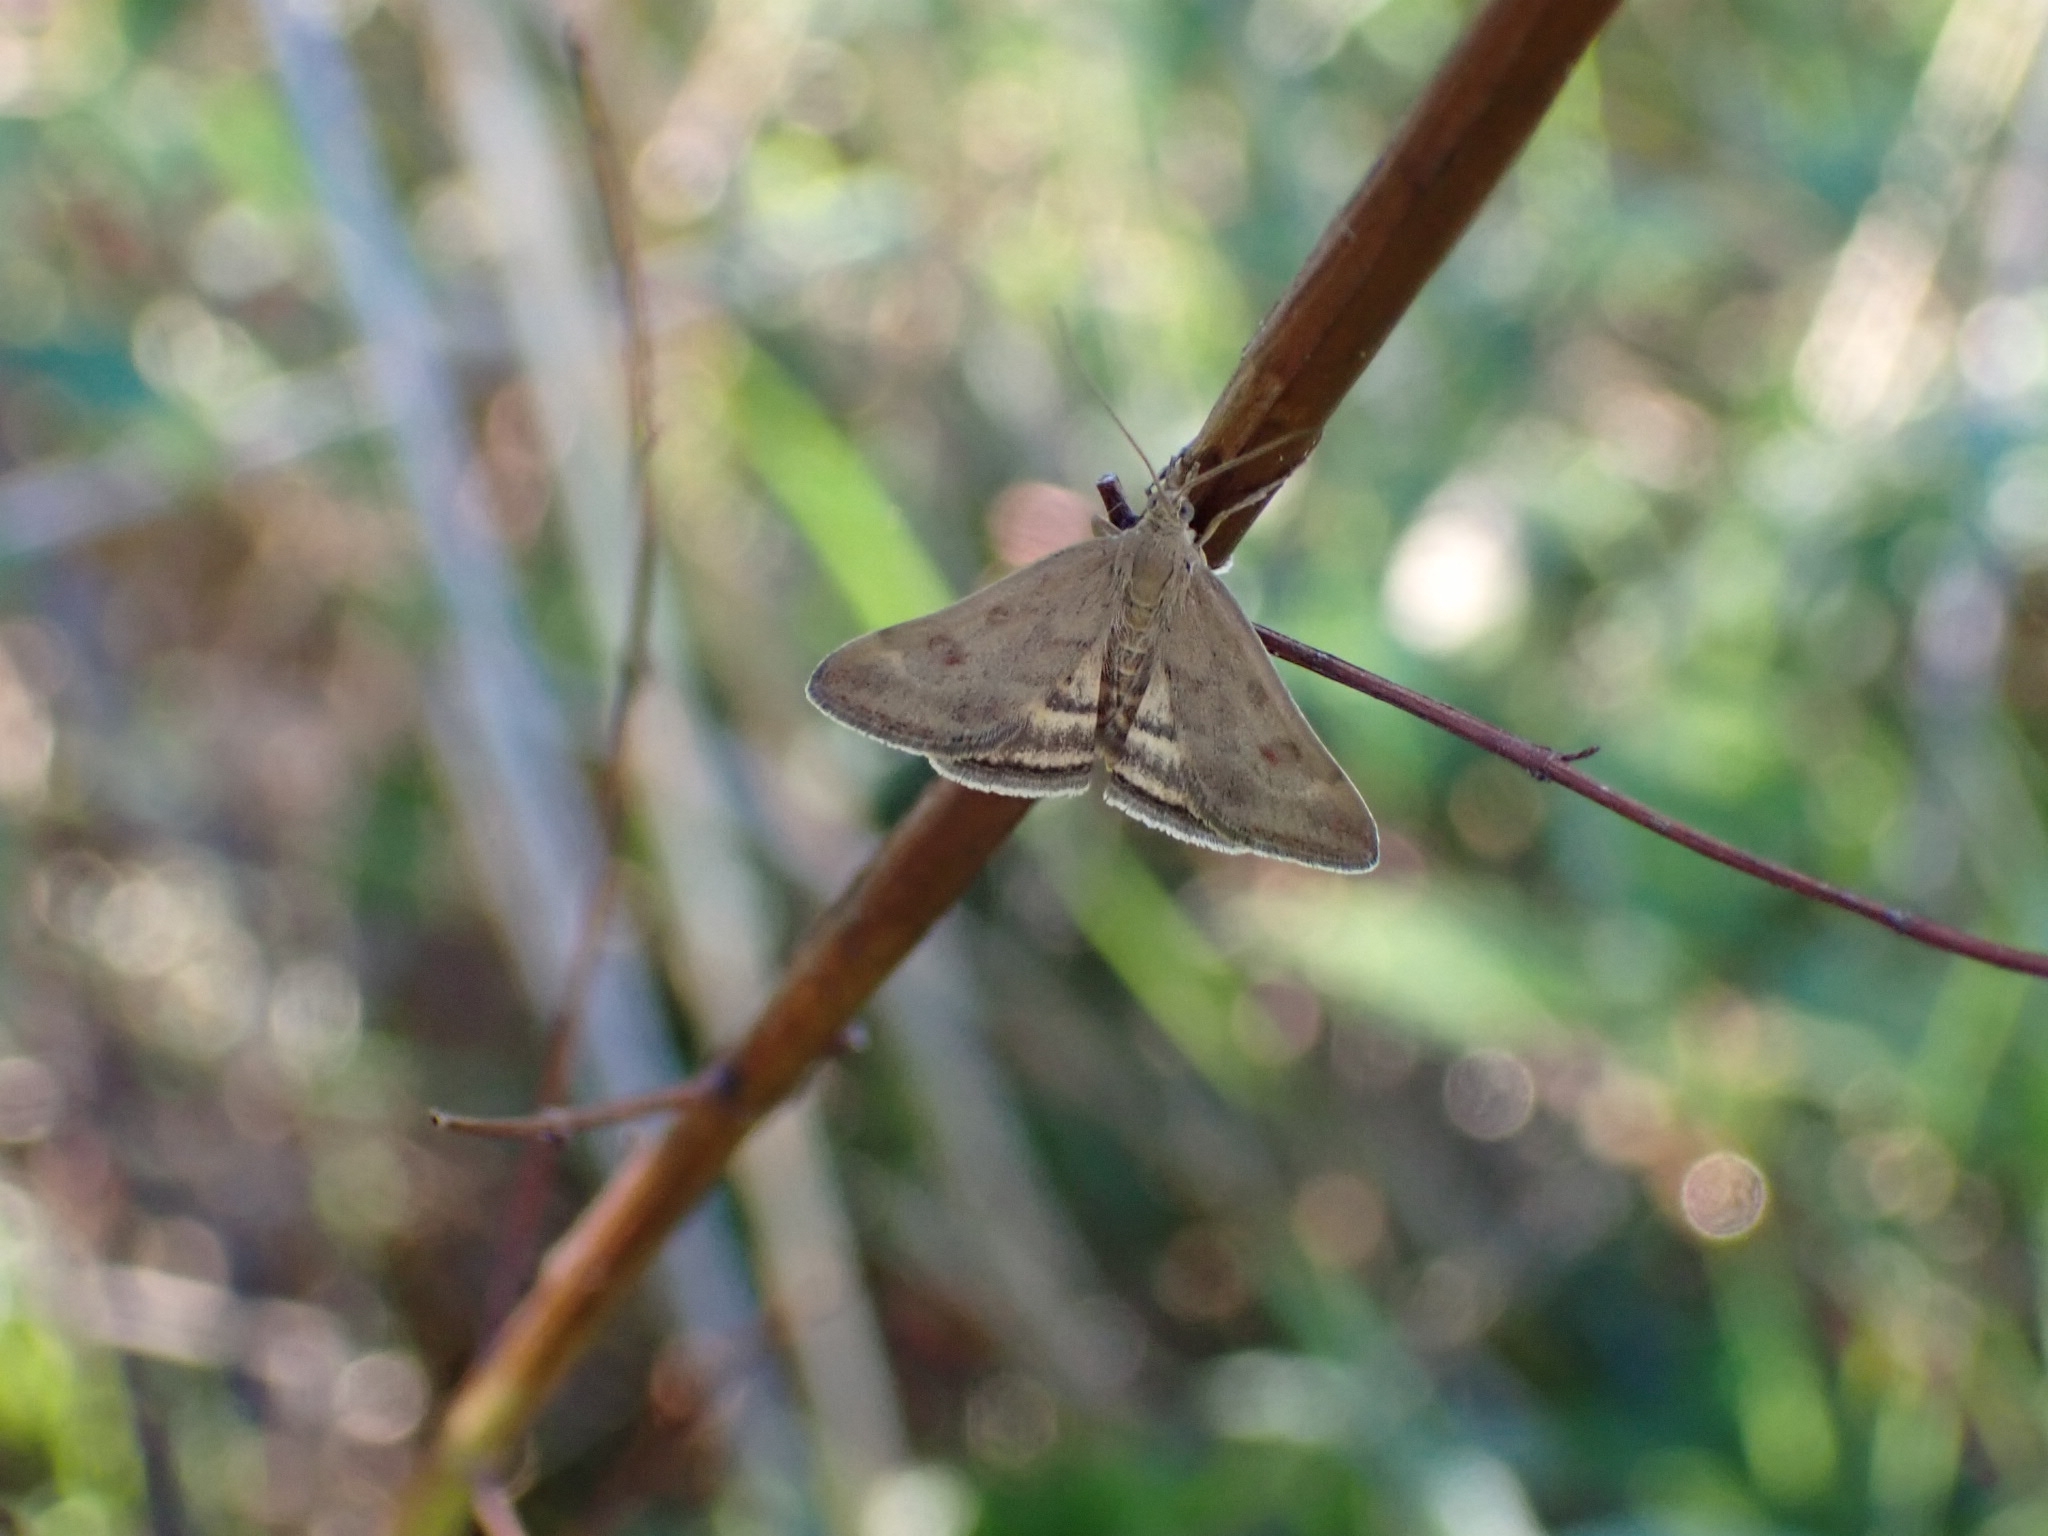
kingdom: Animalia
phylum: Arthropoda
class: Insecta
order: Lepidoptera
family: Crambidae
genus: Pyrausta
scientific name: Pyrausta despicata
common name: Straw-barred pearl
